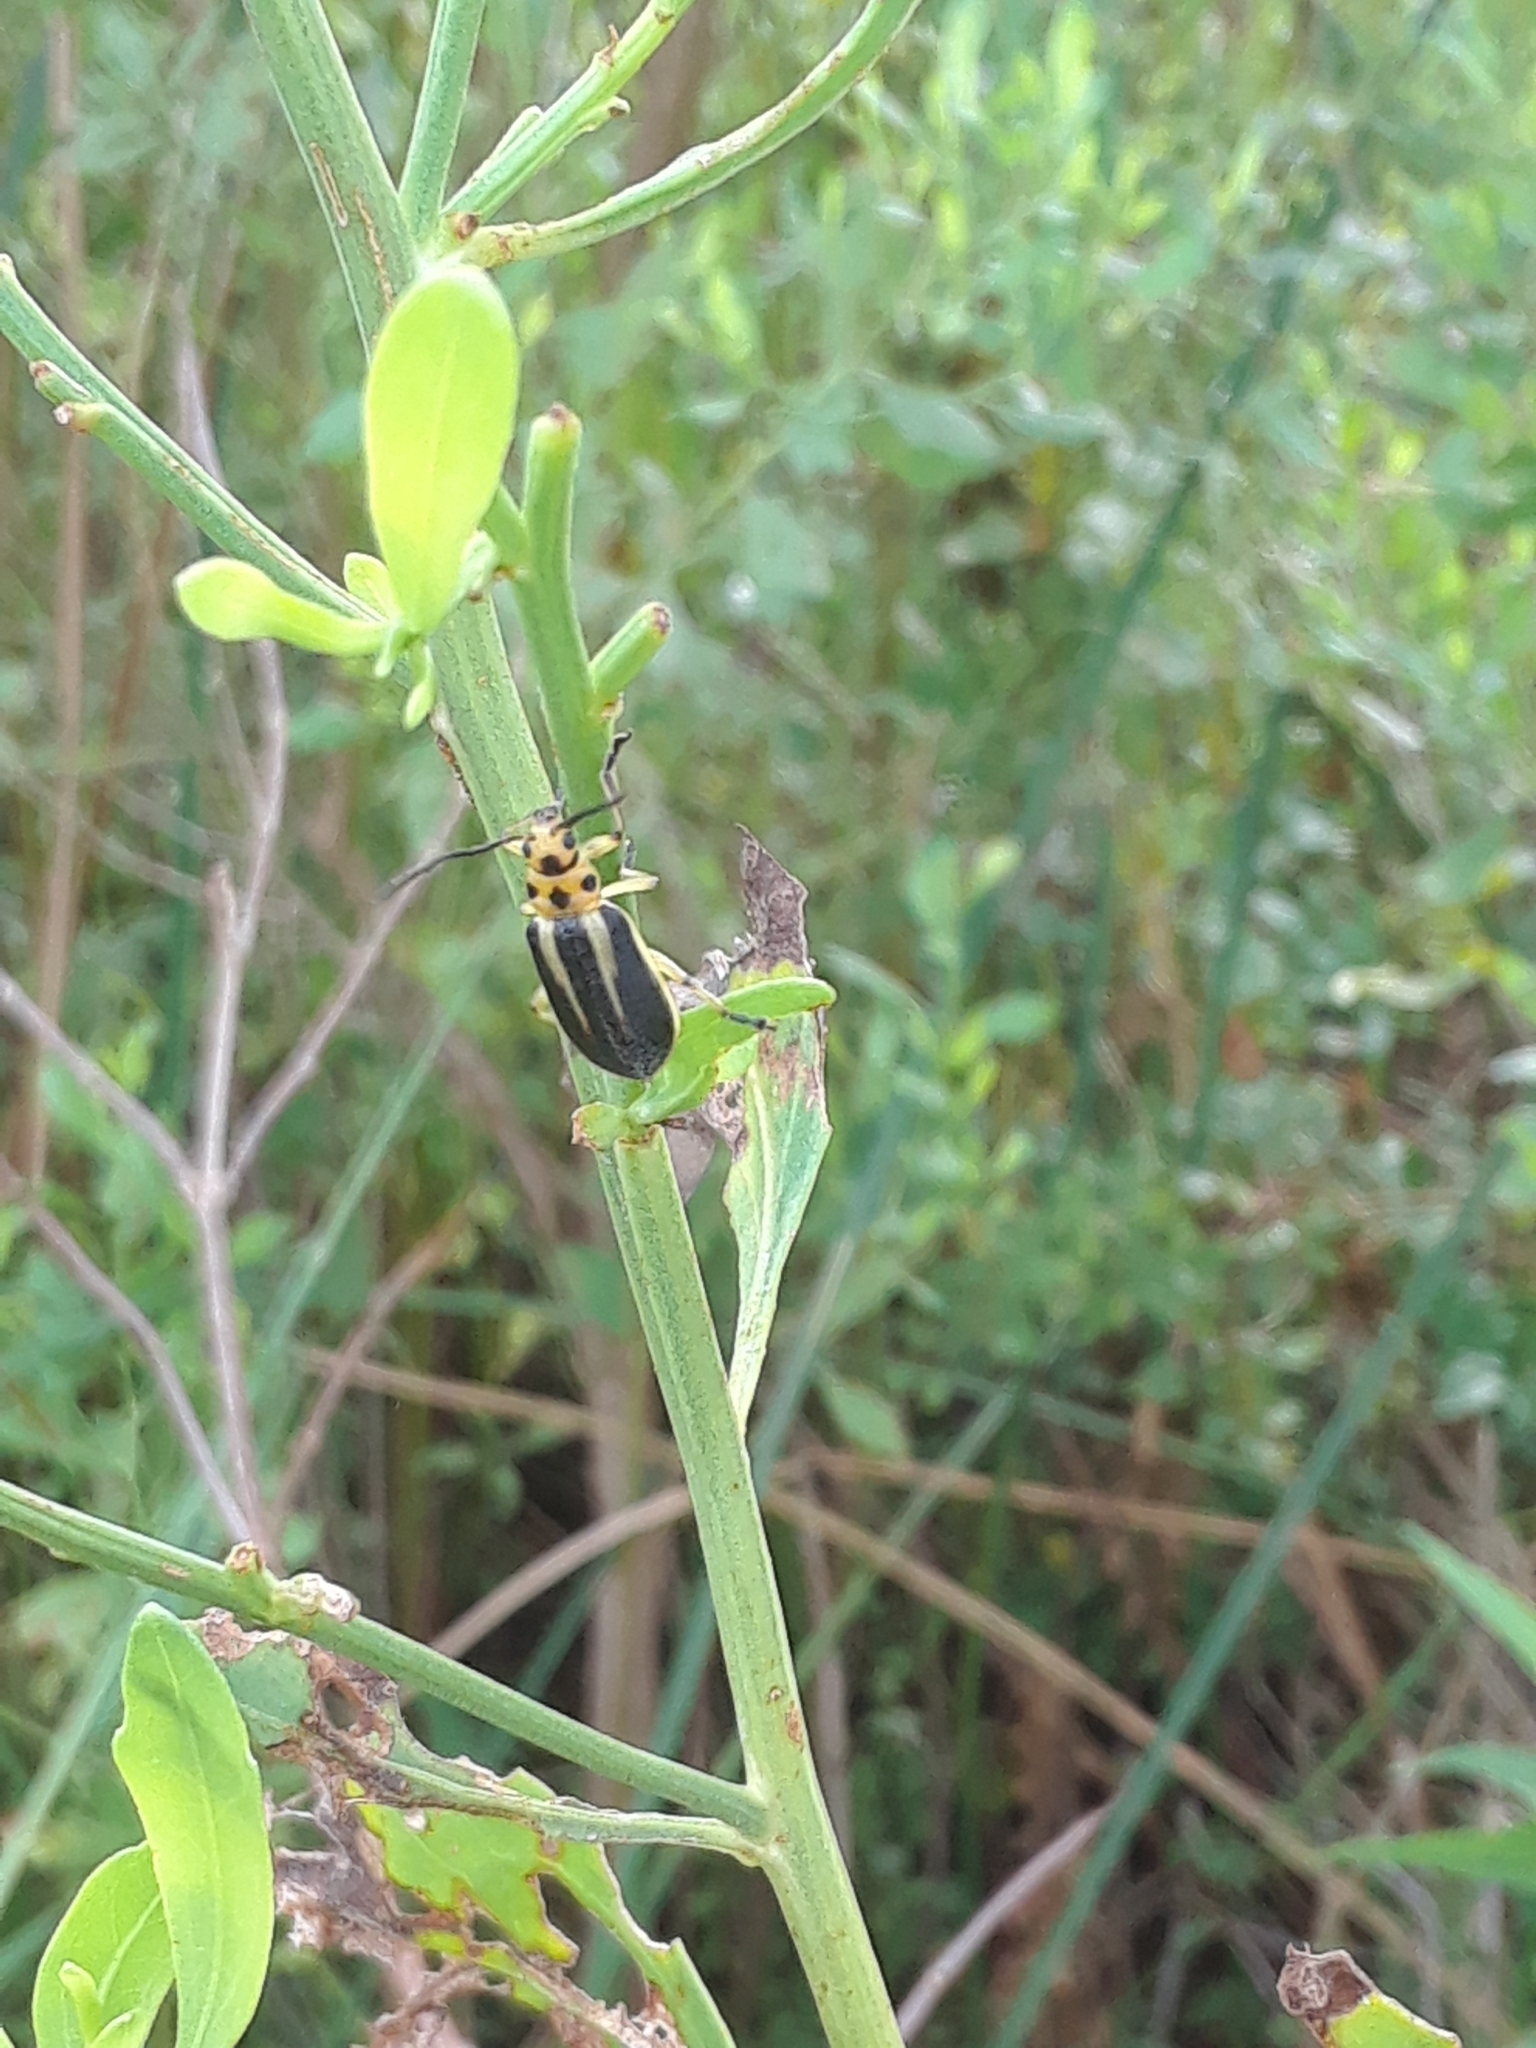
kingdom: Animalia
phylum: Arthropoda
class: Insecta
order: Coleoptera
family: Chrysomelidae
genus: Trirhabda
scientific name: Trirhabda bacharidis
